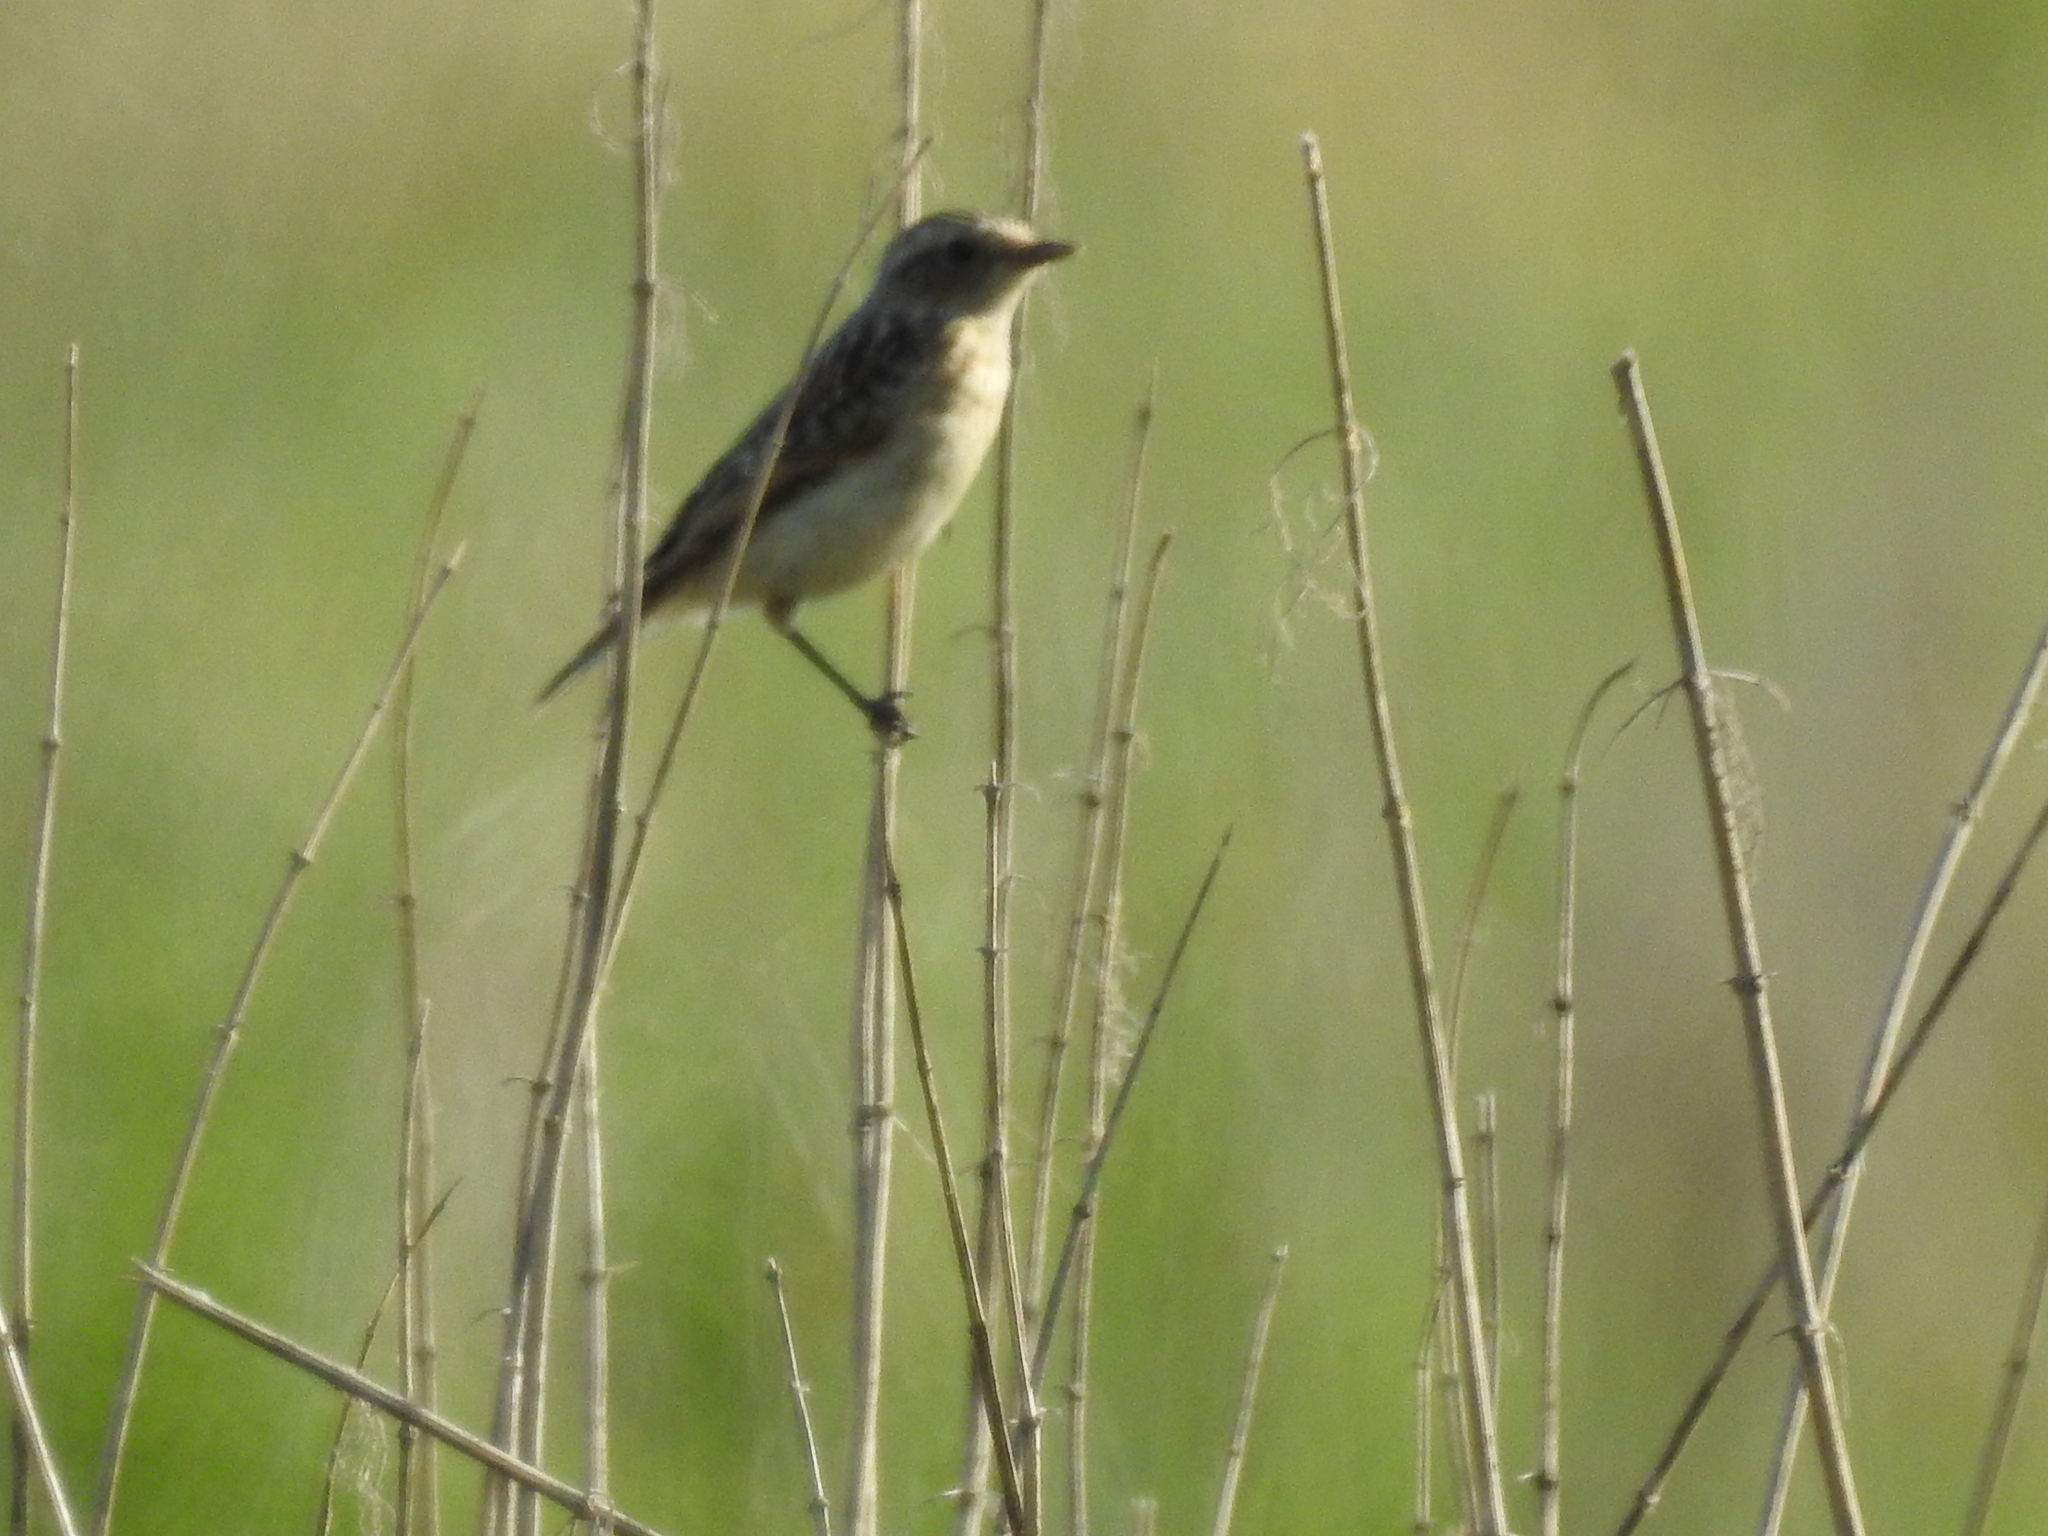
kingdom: Animalia
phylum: Chordata
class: Aves
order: Passeriformes
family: Muscicapidae
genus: Saxicola
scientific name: Saxicola rubetra
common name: Whinchat
